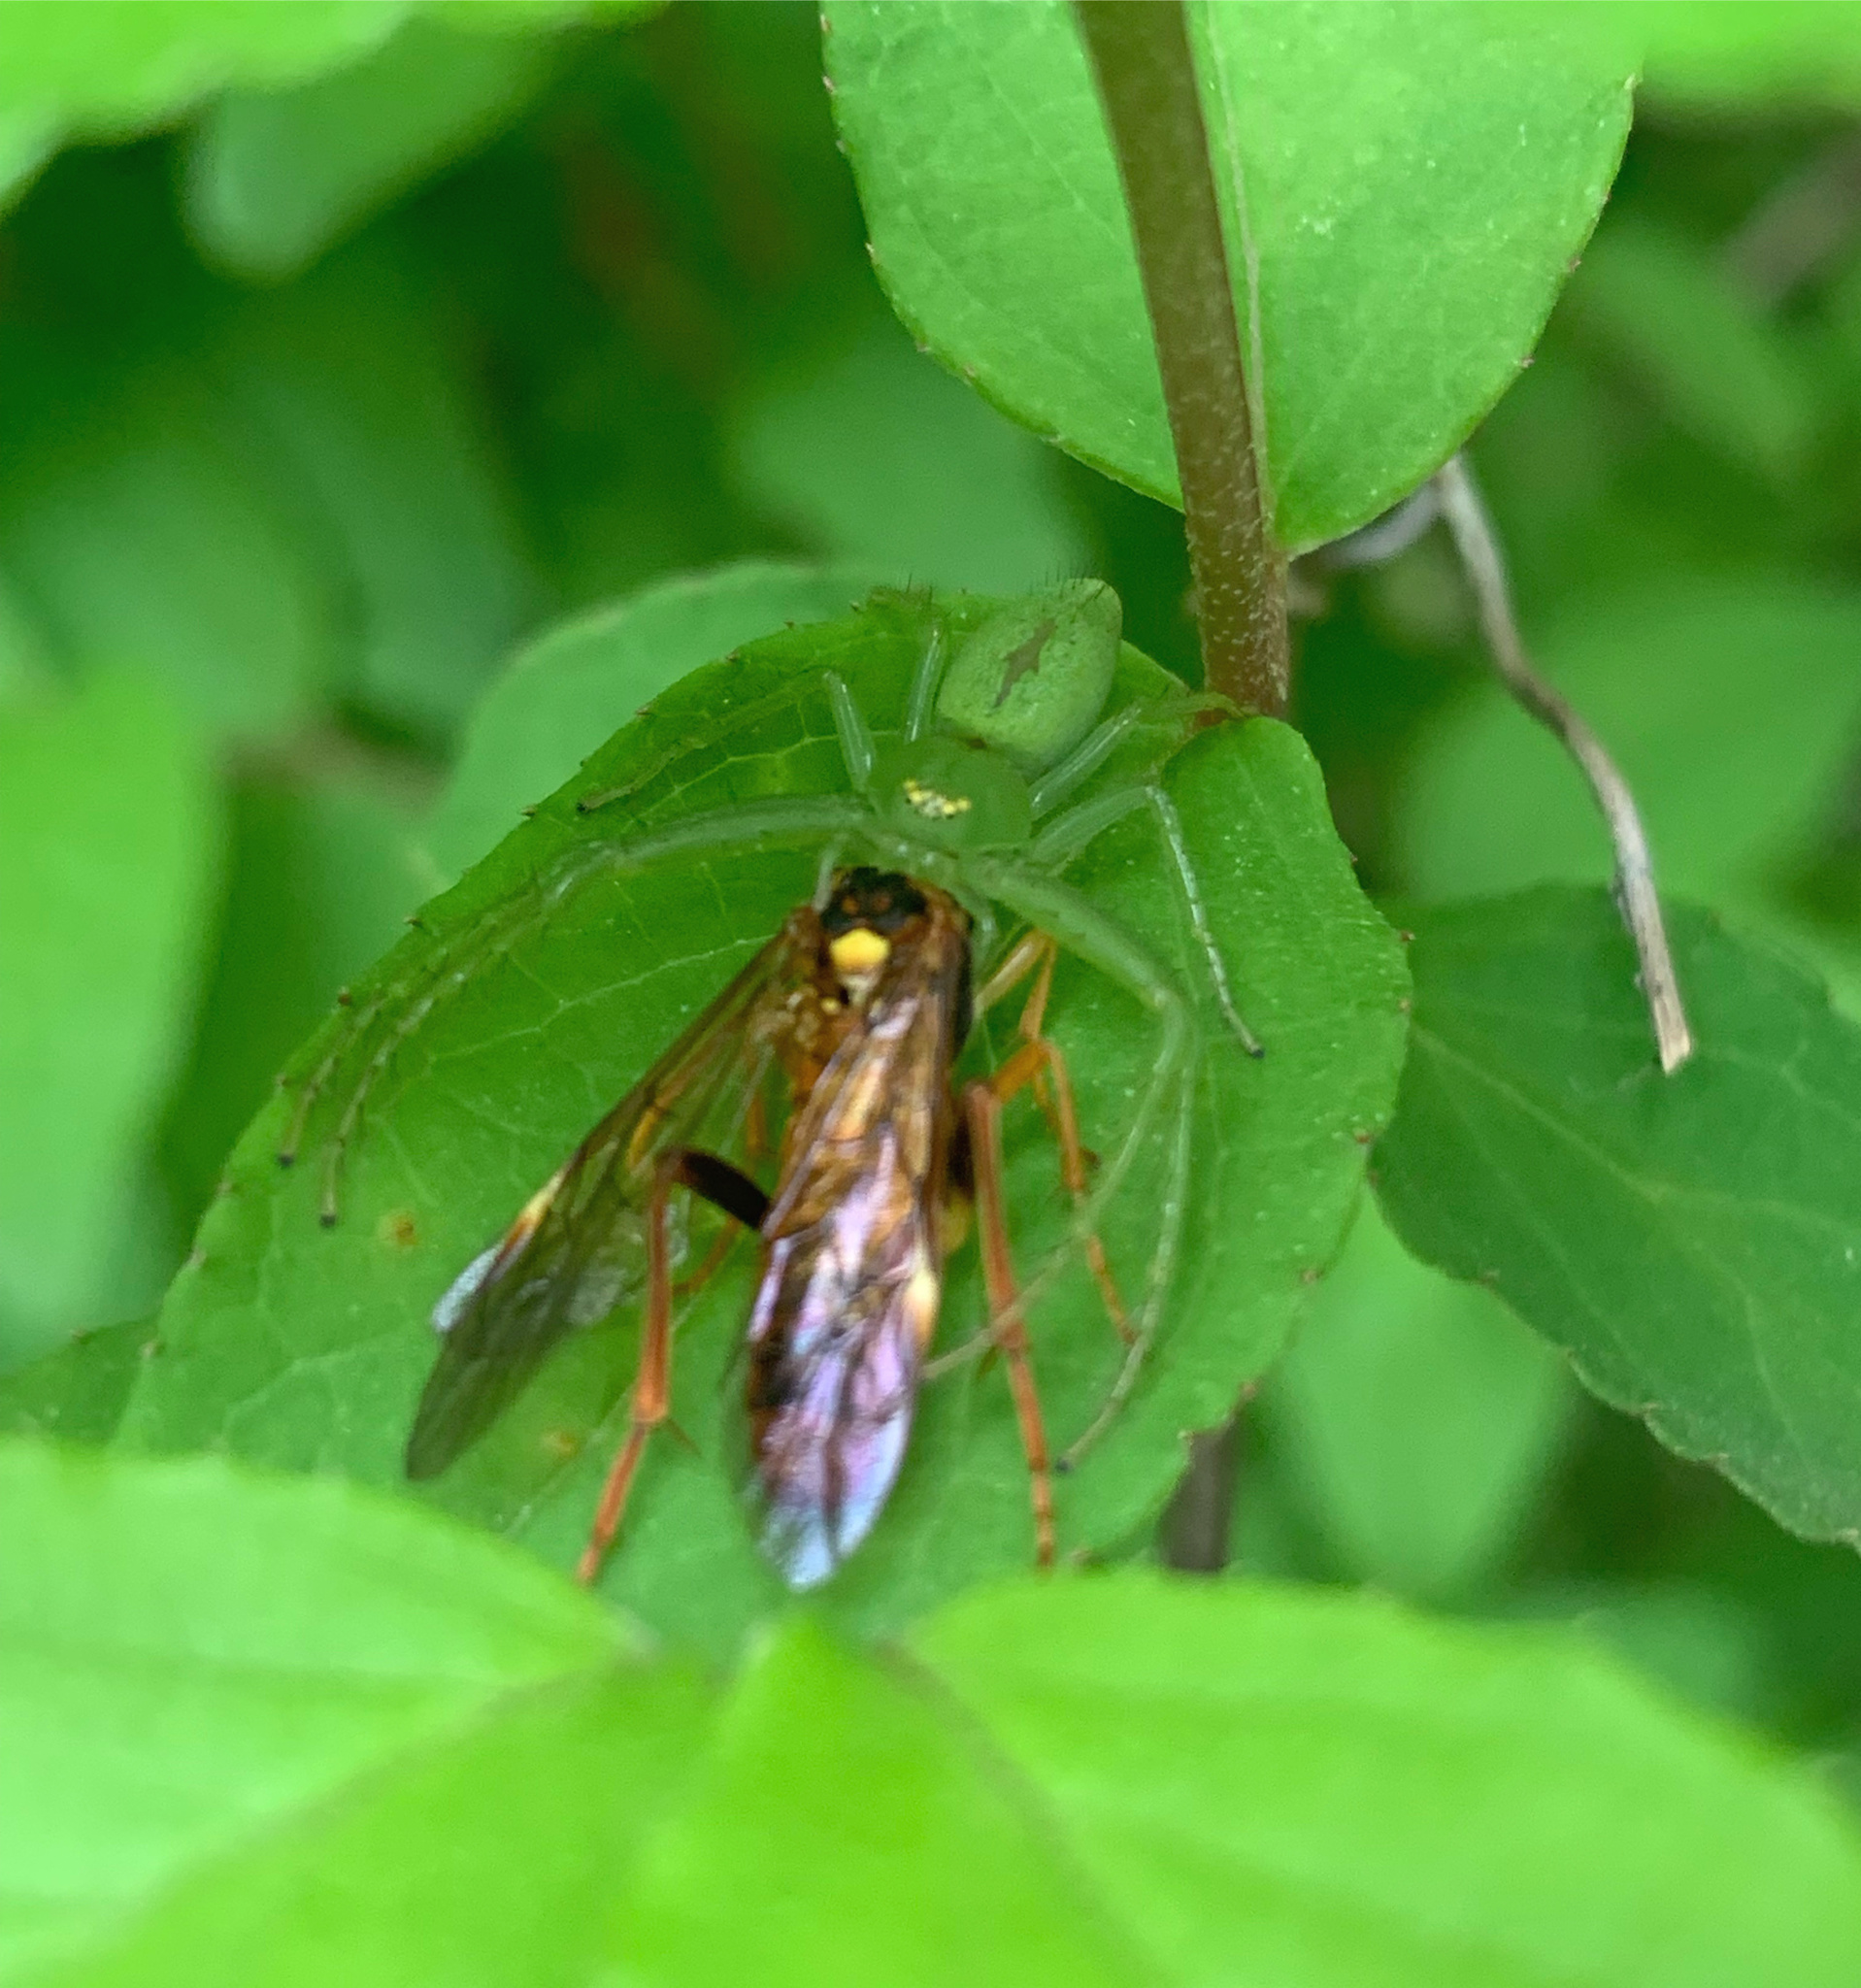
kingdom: Animalia
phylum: Arthropoda
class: Arachnida
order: Araneae
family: Thomisidae
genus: Oxytate
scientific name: Oxytate striatipes
